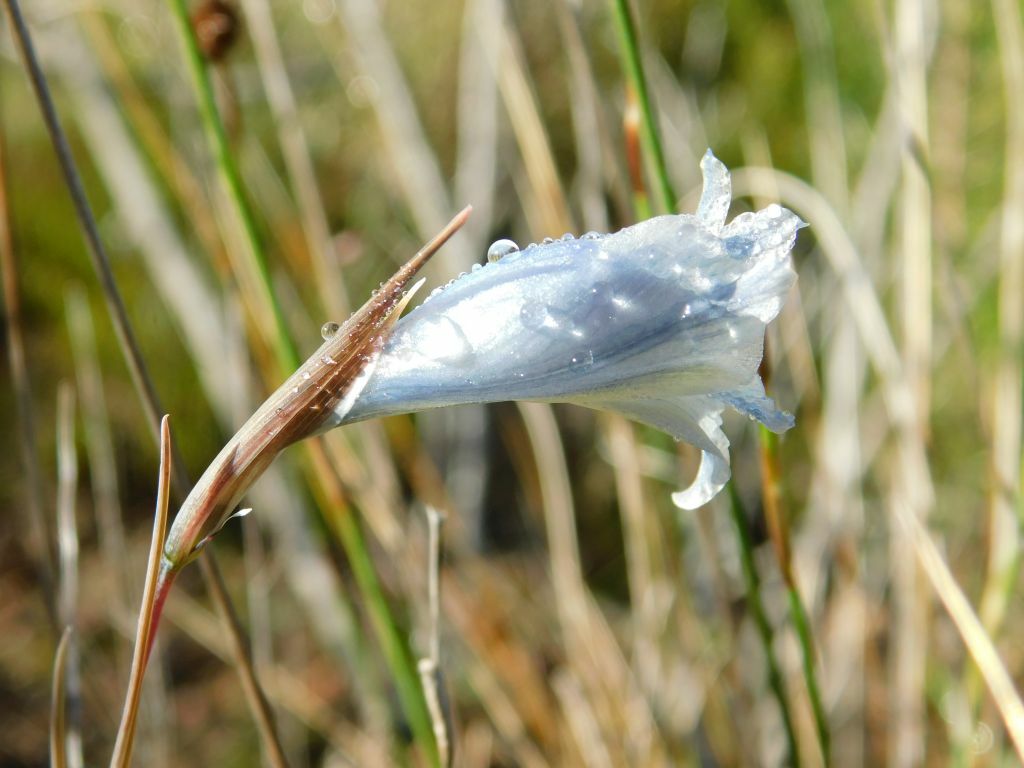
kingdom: Plantae
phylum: Tracheophyta
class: Liliopsida
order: Asparagales
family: Iridaceae
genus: Gladiolus
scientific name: Gladiolus gracilis
